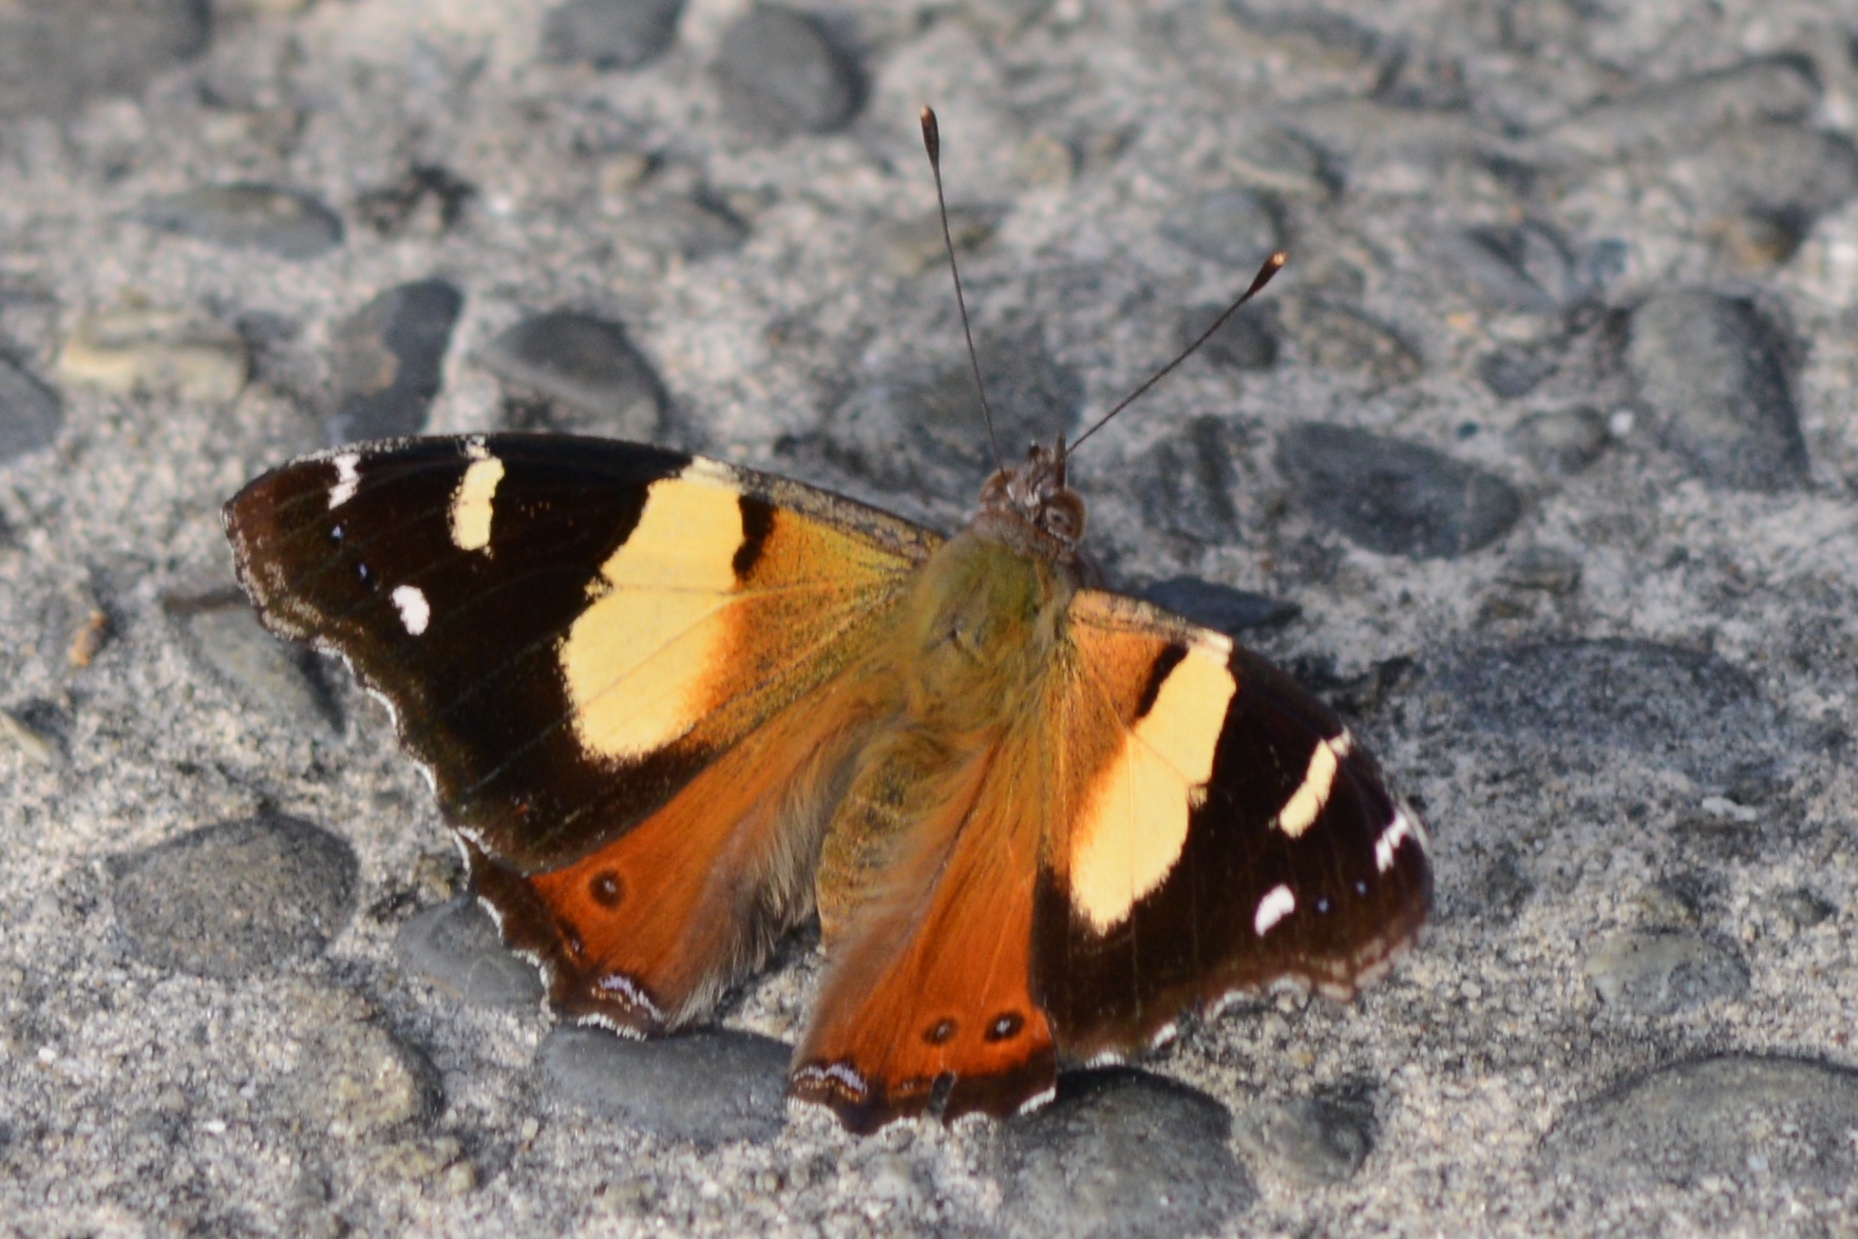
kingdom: Animalia
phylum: Arthropoda
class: Insecta
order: Lepidoptera
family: Nymphalidae
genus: Vanessa
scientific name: Vanessa itea
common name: Yellow admiral
